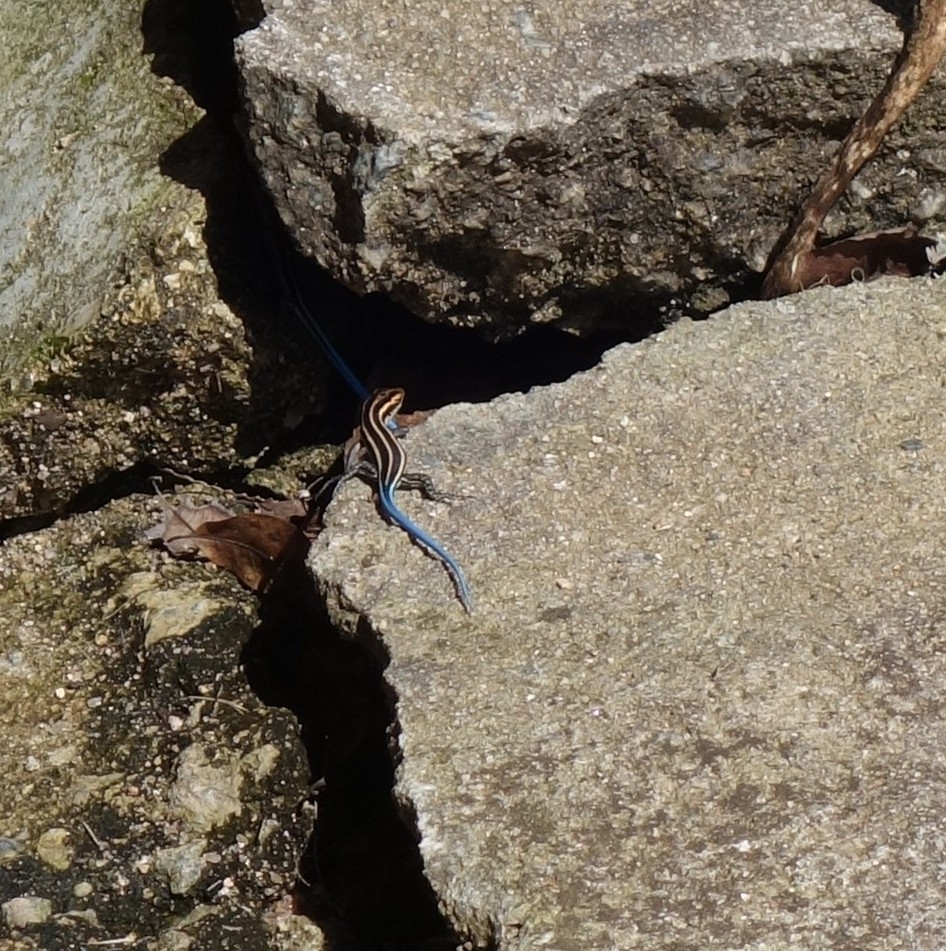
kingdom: Animalia
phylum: Chordata
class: Squamata
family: Scincidae
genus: Trachylepis
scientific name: Trachylepis margaritifera
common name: Rainbow skink
